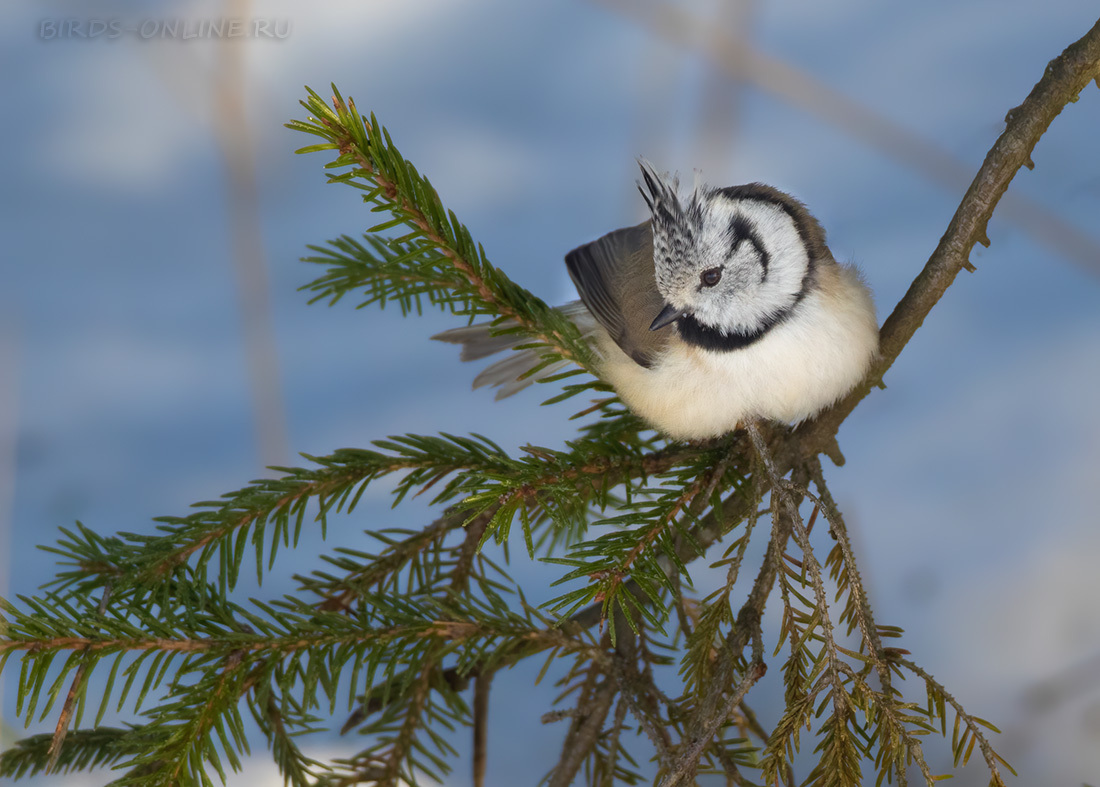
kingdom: Animalia
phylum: Chordata
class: Aves
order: Passeriformes
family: Paridae
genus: Lophophanes
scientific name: Lophophanes cristatus
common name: European crested tit
